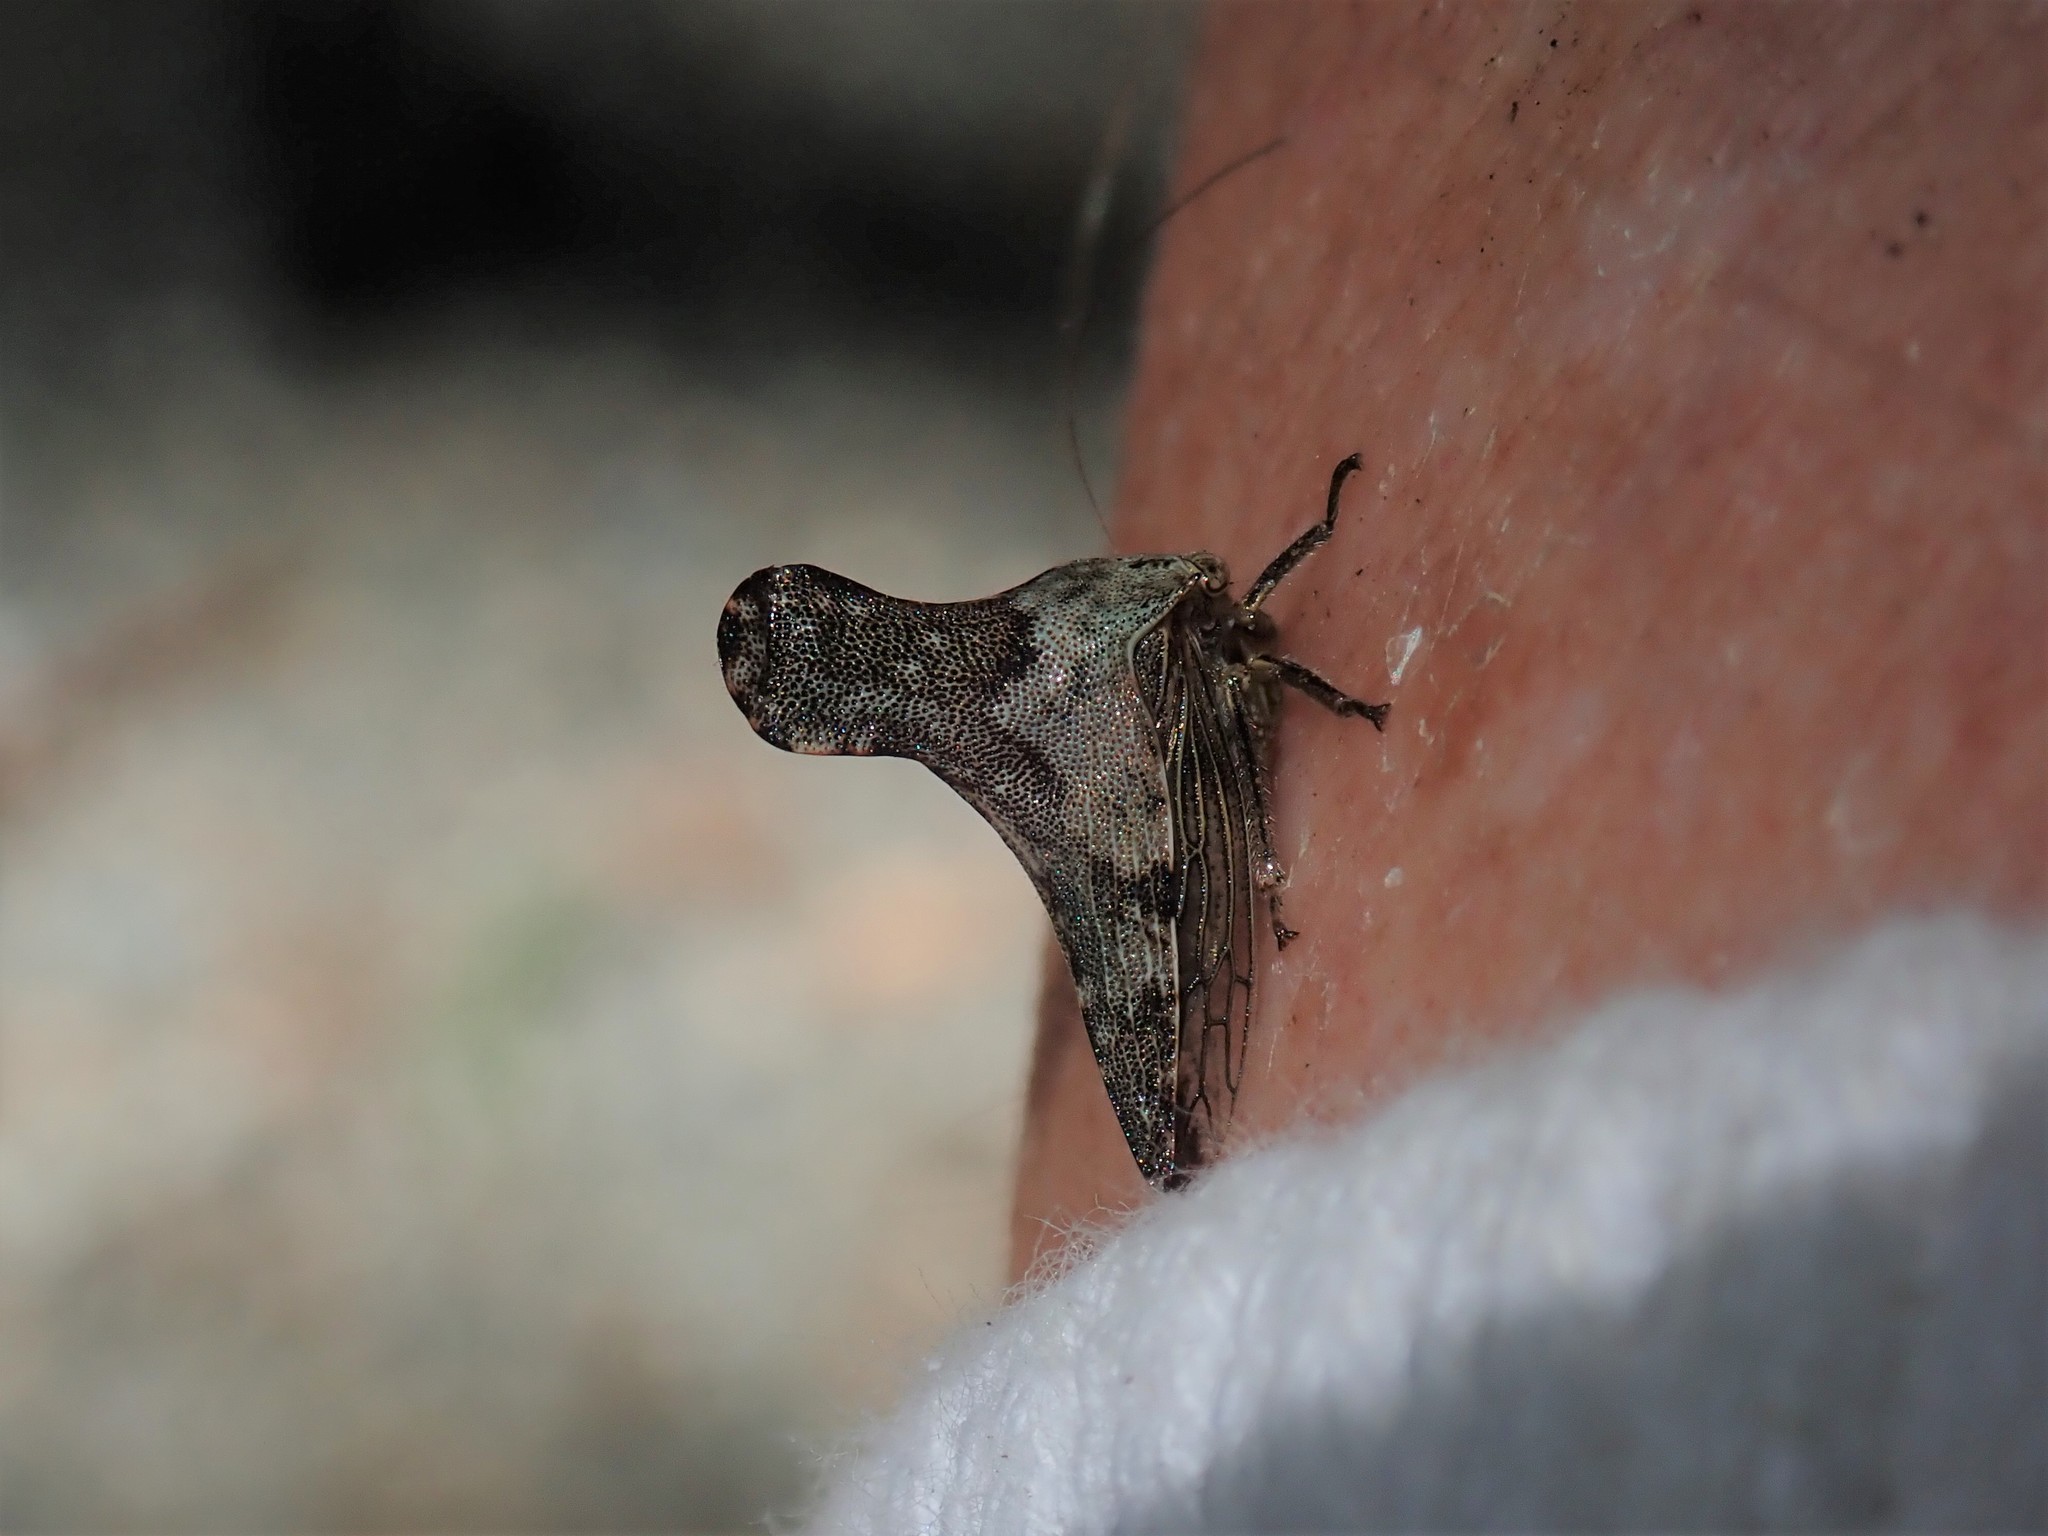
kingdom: Animalia
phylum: Arthropoda
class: Insecta
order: Hemiptera
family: Membracidae
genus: Glossonotus
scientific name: Glossonotus acuminata
